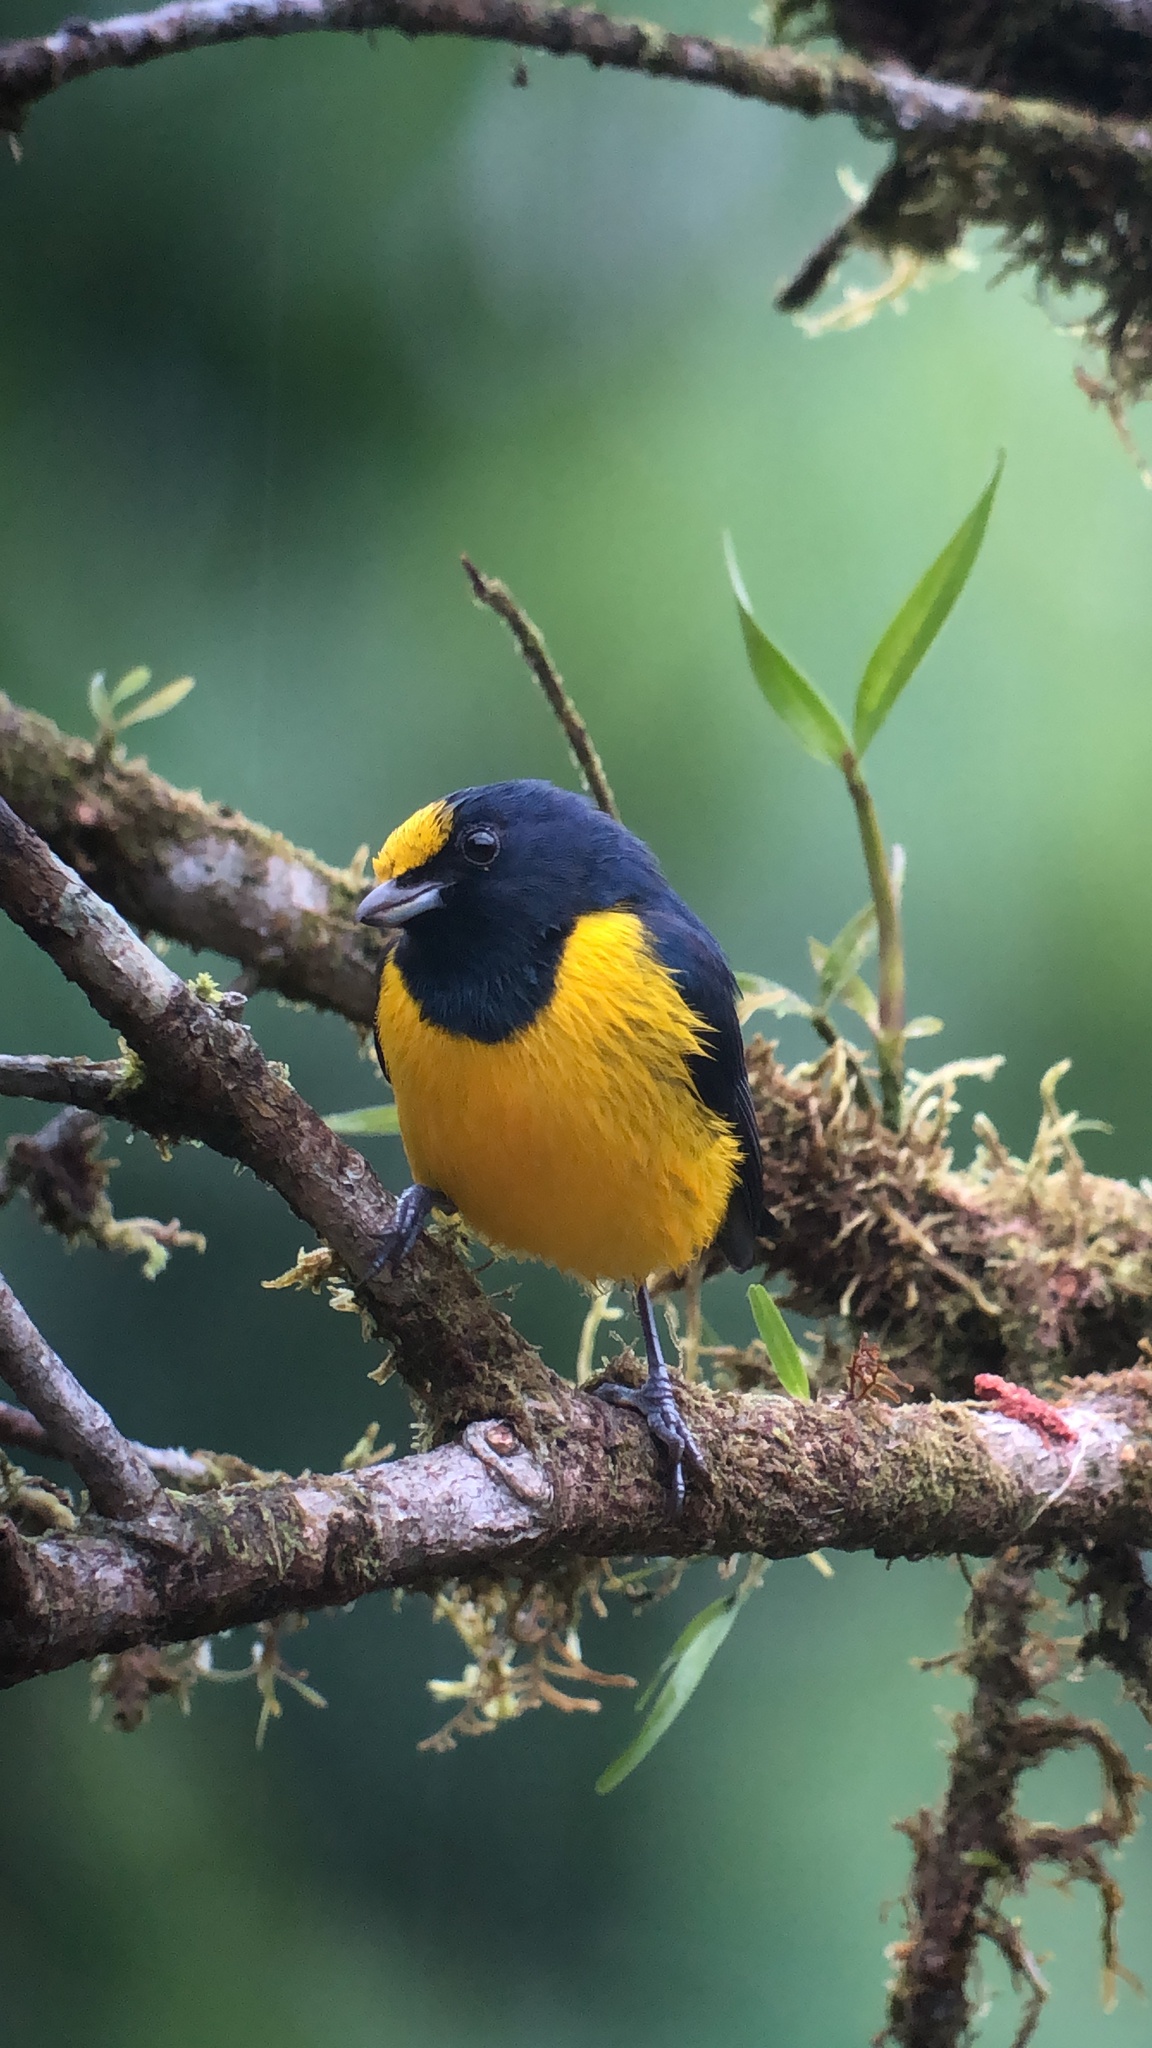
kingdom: Animalia
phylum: Chordata
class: Aves
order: Passeriformes
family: Fringillidae
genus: Euphonia
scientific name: Euphonia imitans
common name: Spot-crowned euphonia
